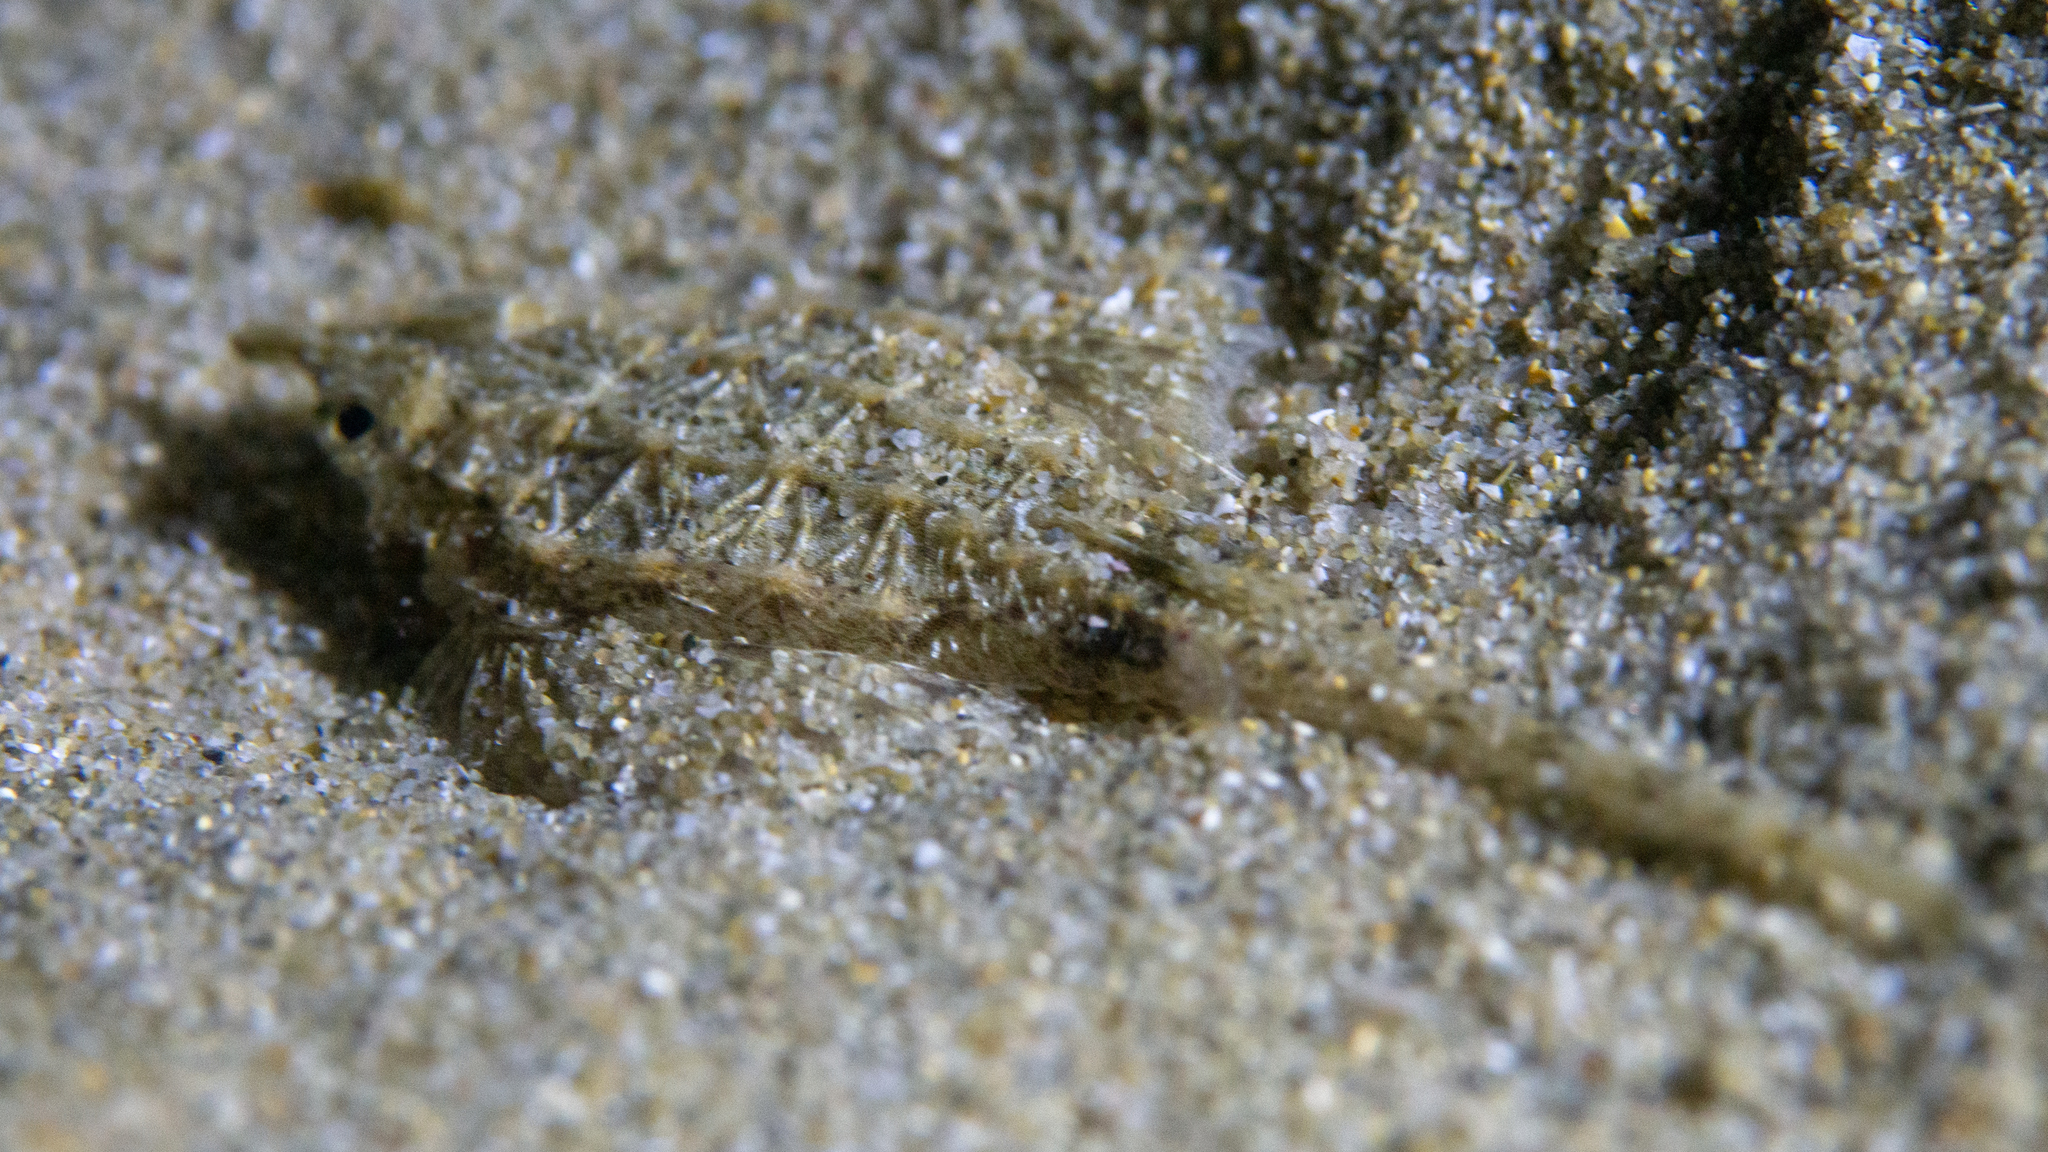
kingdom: Animalia
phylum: Chordata
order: Gasterosteiformes
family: Pegasidae
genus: Pegasus
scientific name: Pegasus lancifer
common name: Dragonfish
